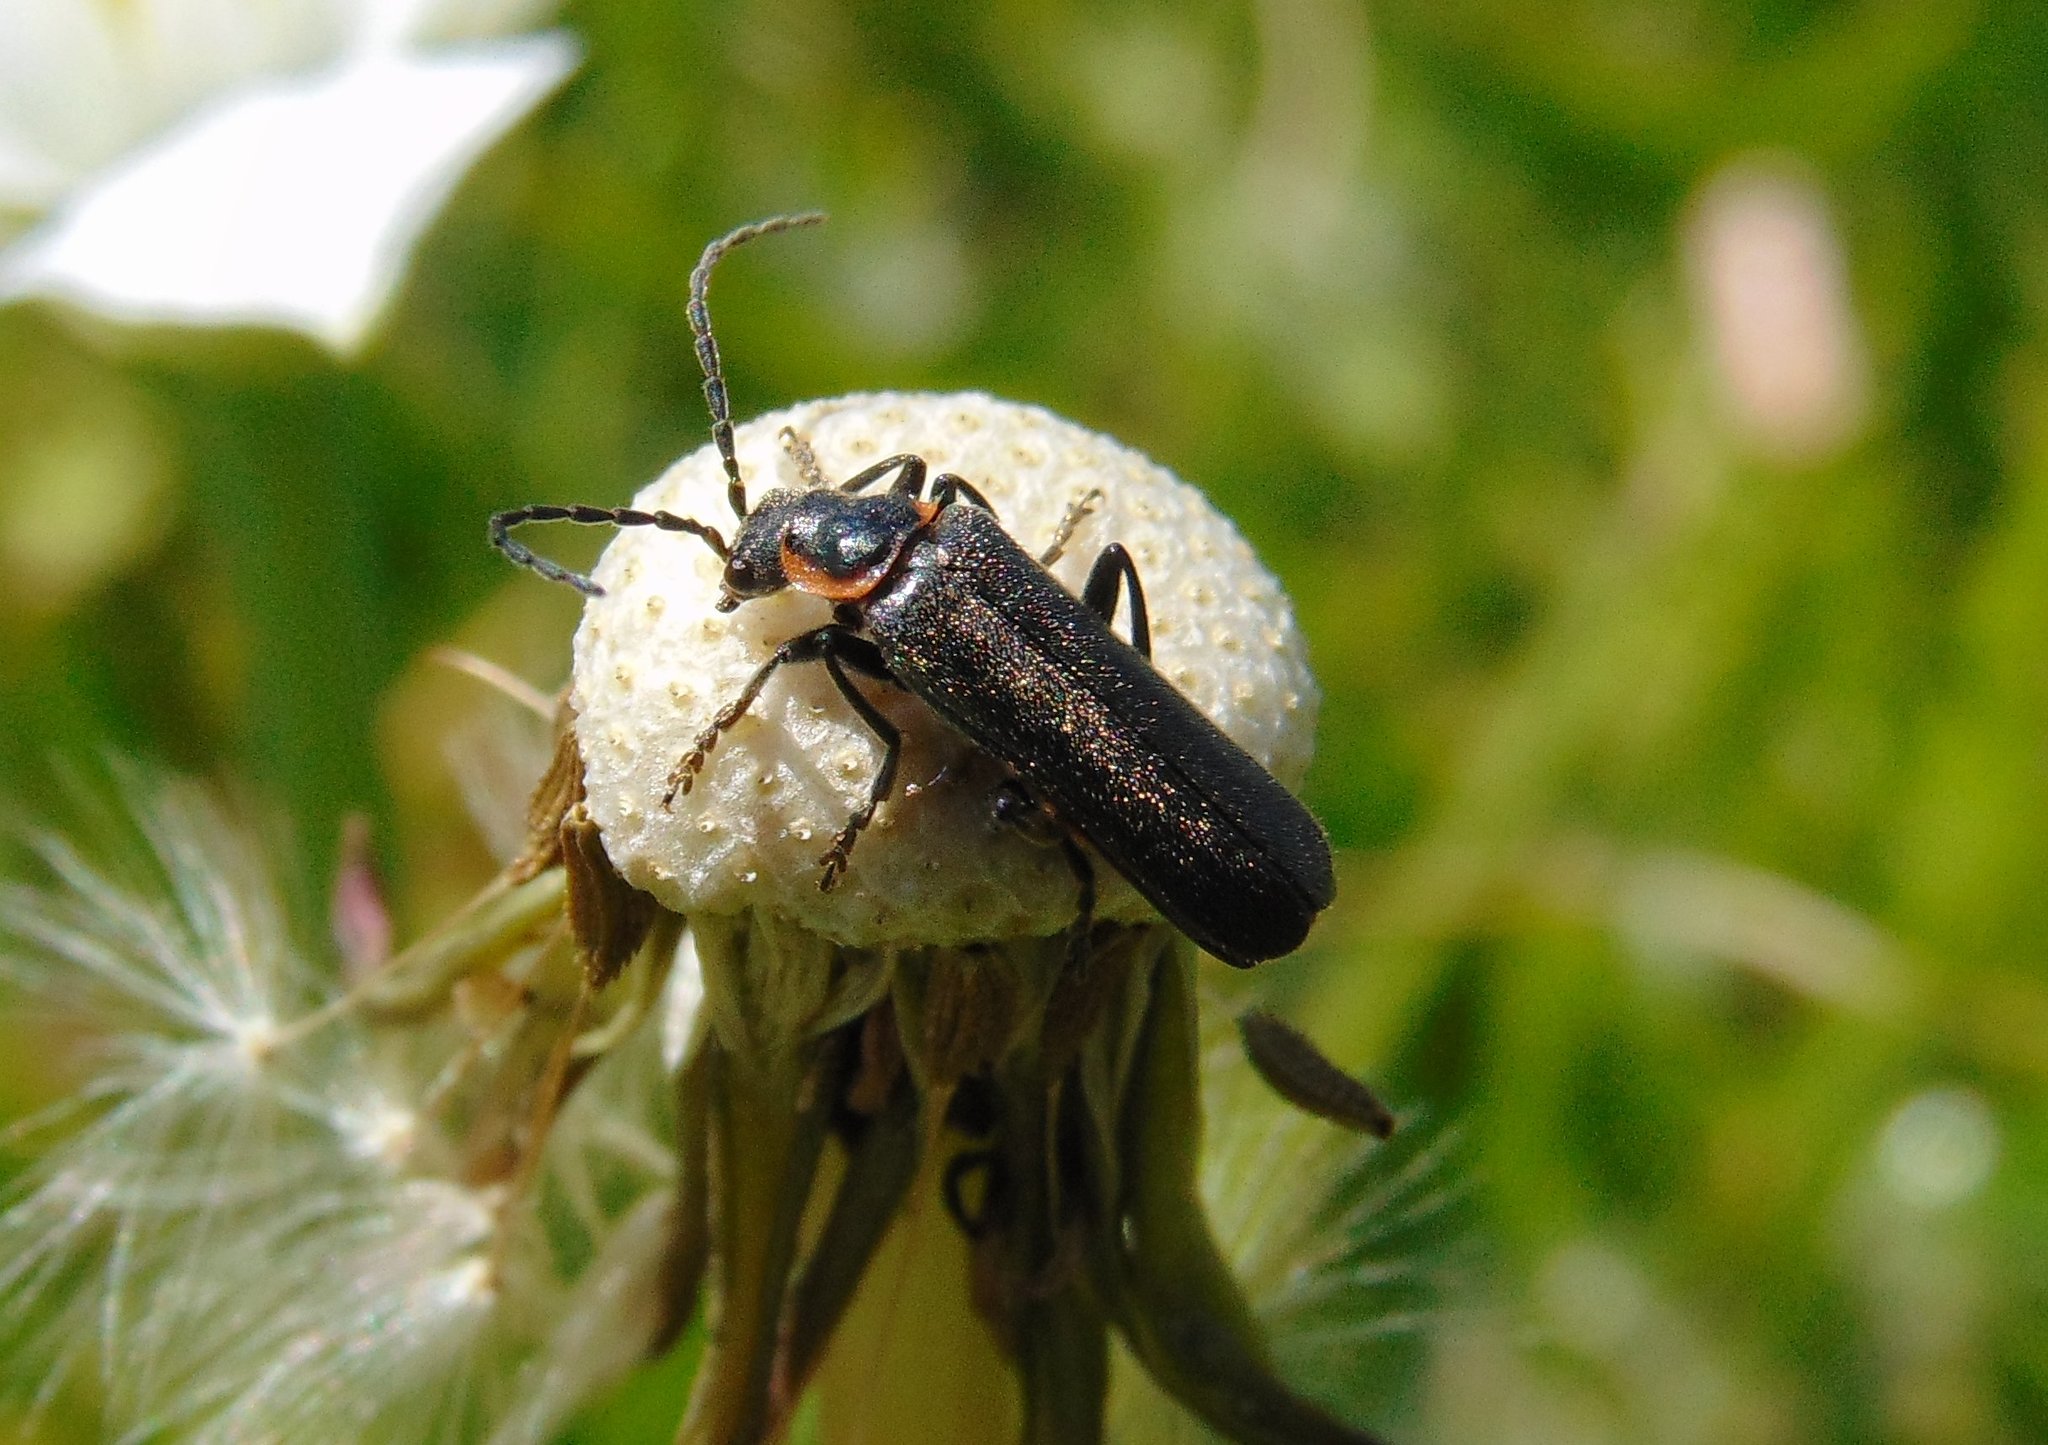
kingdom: Animalia
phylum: Arthropoda
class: Insecta
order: Coleoptera
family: Cantharidae
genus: Cantharis
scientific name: Cantharis pulicaria
